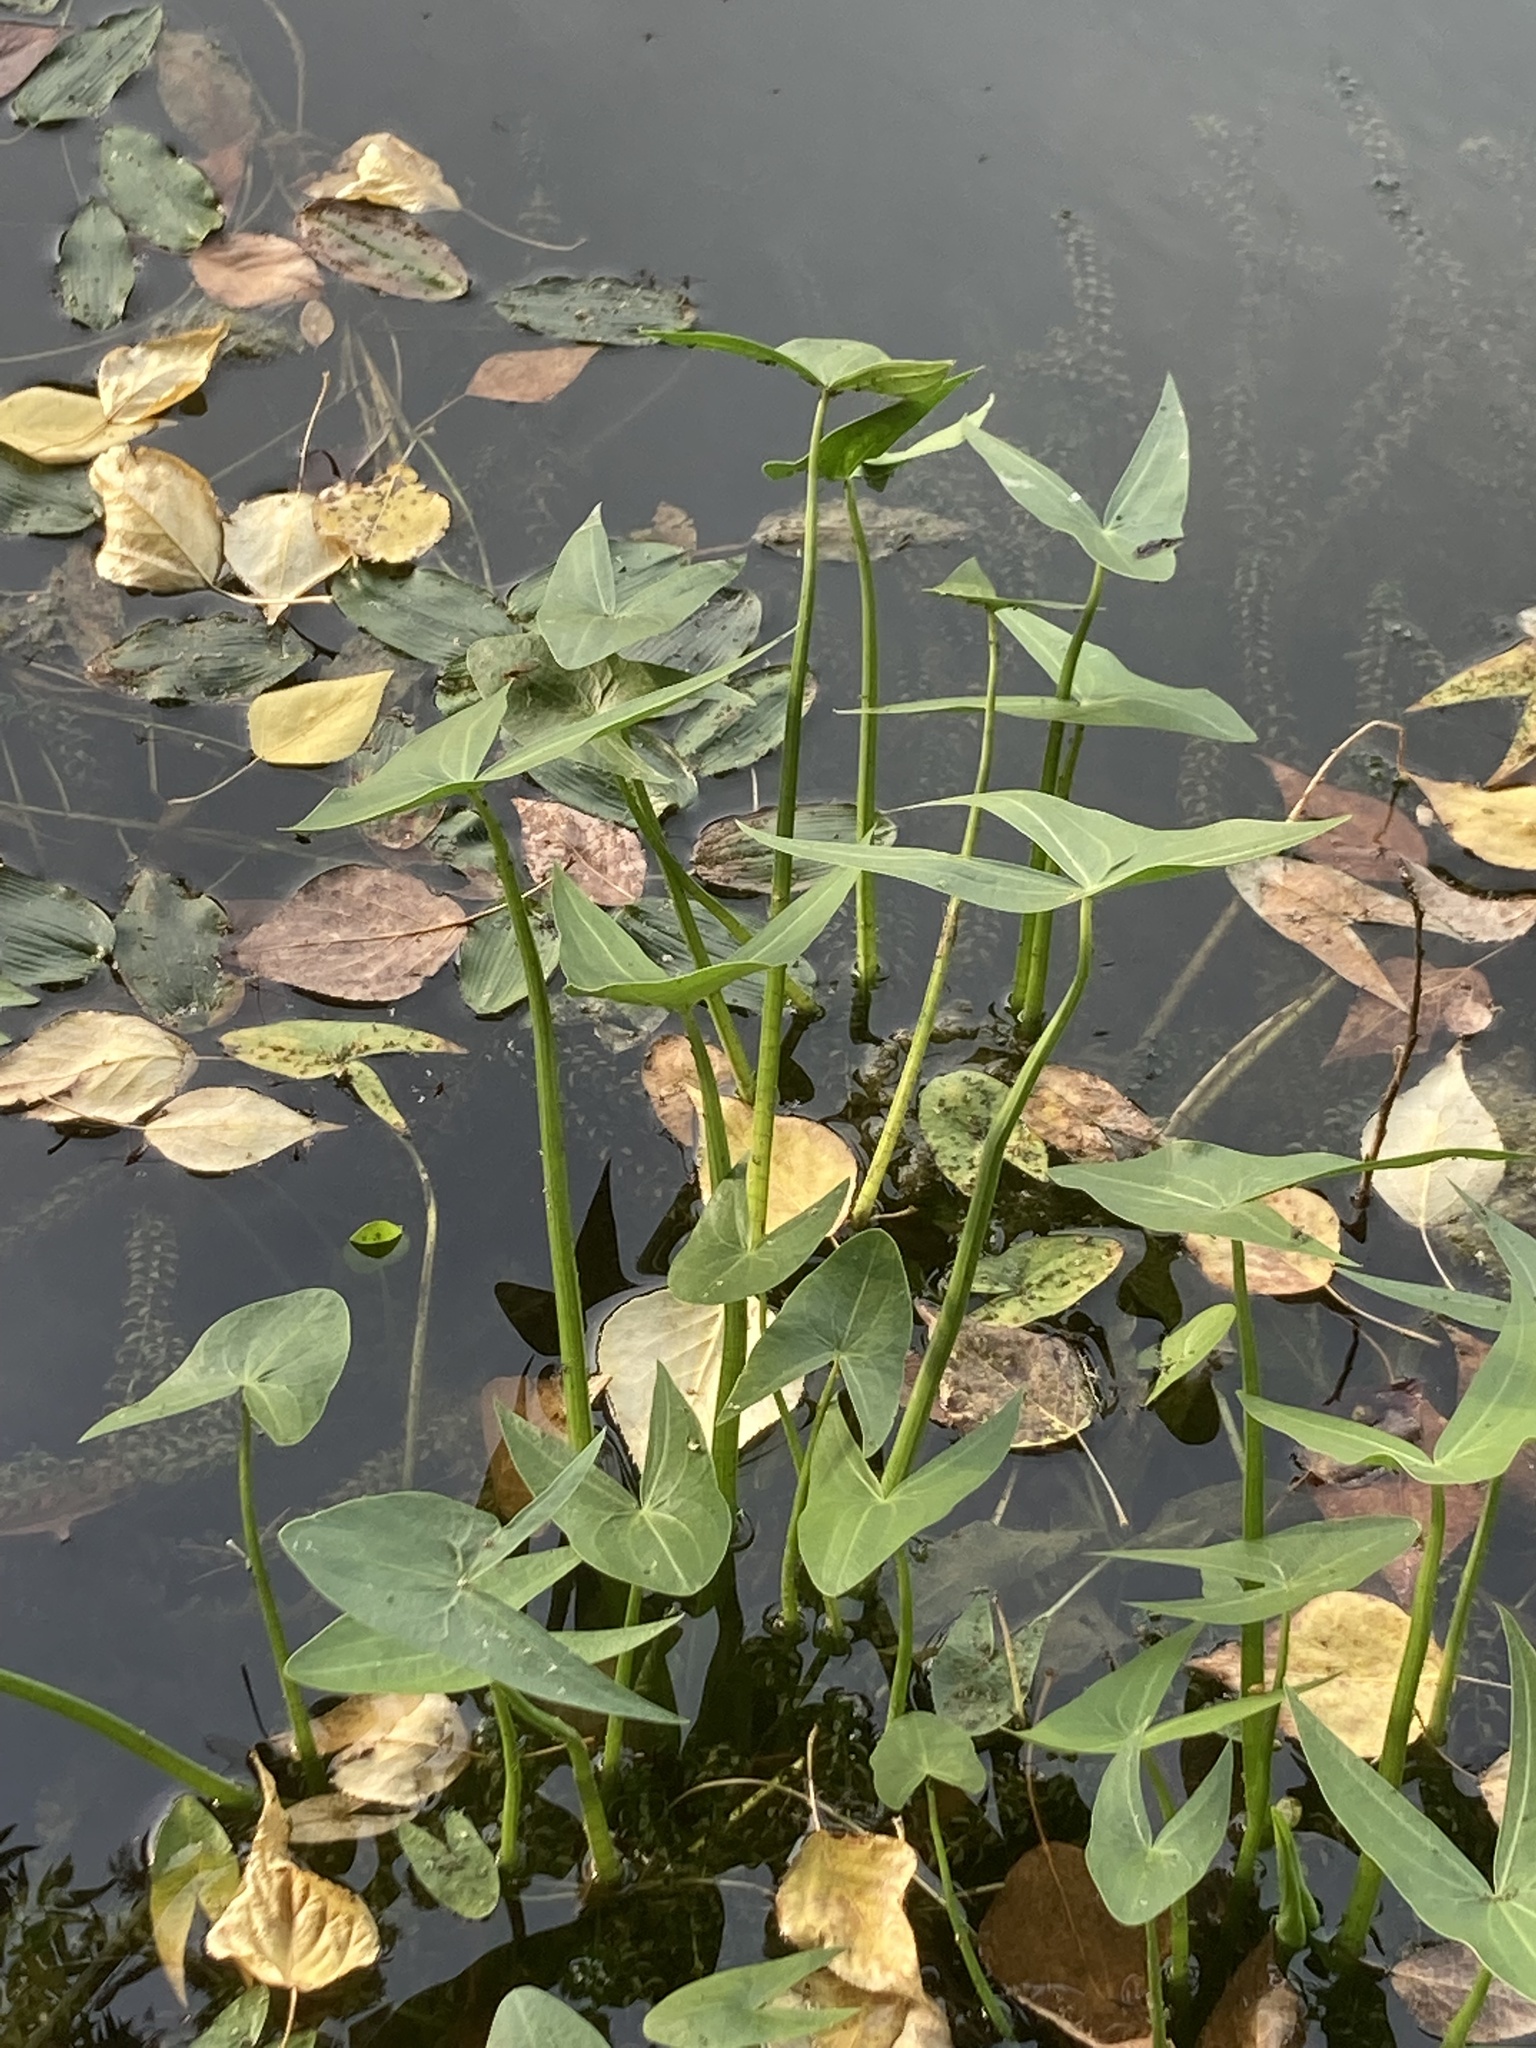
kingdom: Plantae
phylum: Tracheophyta
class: Liliopsida
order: Alismatales
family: Alismataceae
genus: Sagittaria
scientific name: Sagittaria sagittifolia
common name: Arrowhead
